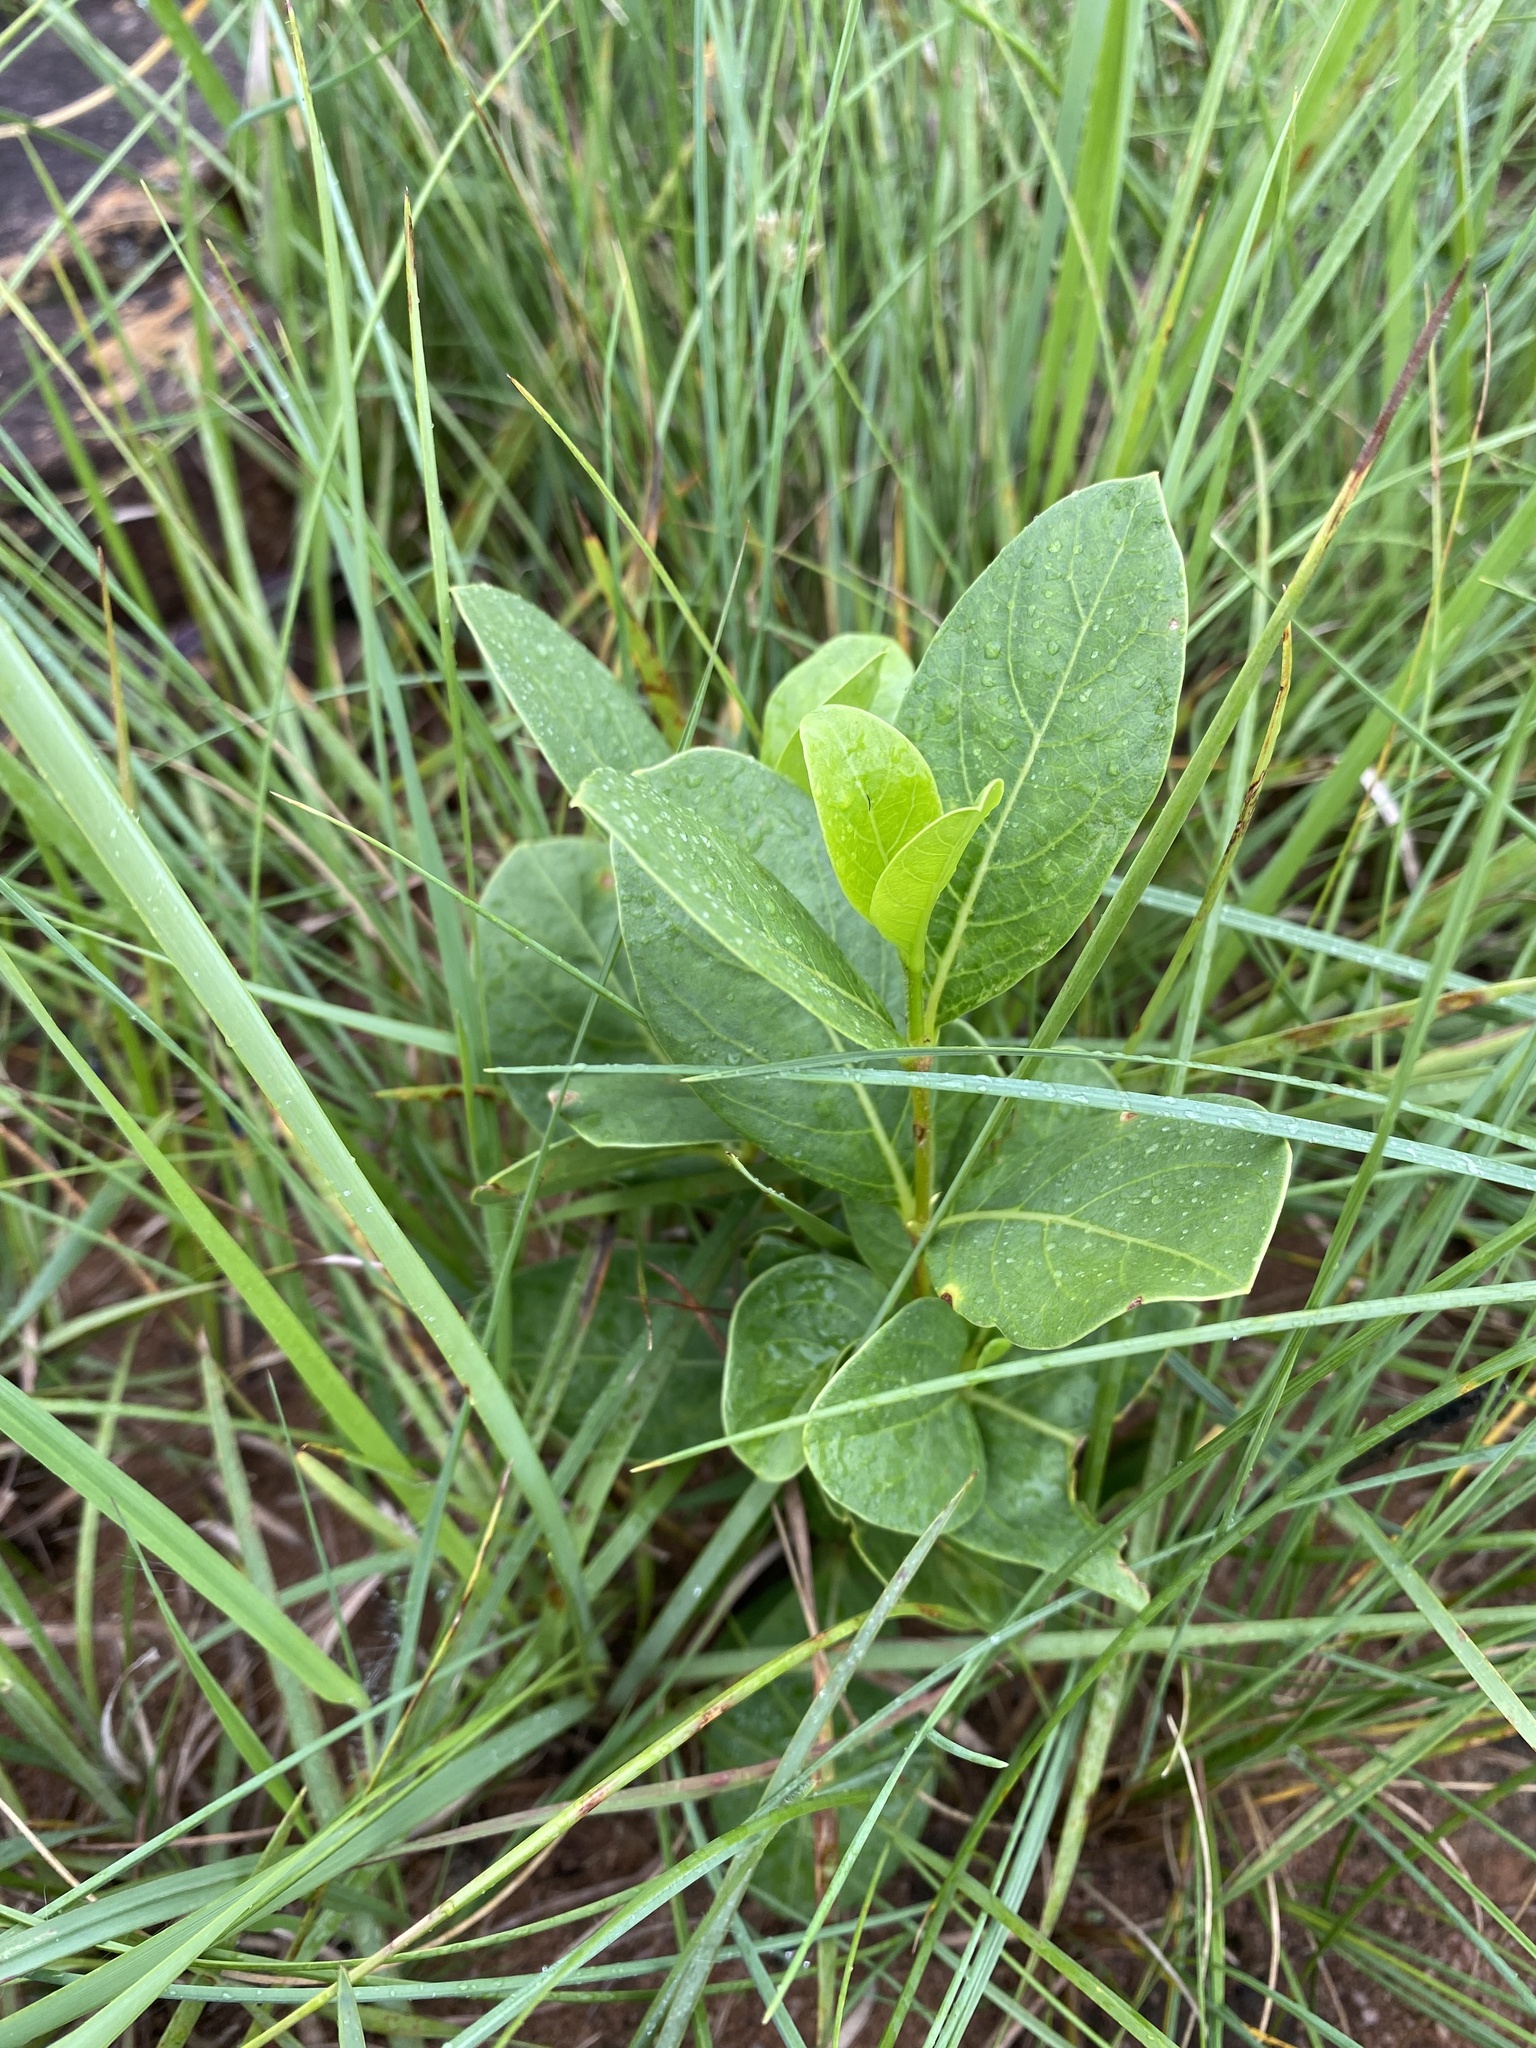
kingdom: Plantae
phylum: Tracheophyta
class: Magnoliopsida
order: Gentianales
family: Rubiaceae
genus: Vangueria
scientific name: Vangueria venosa
